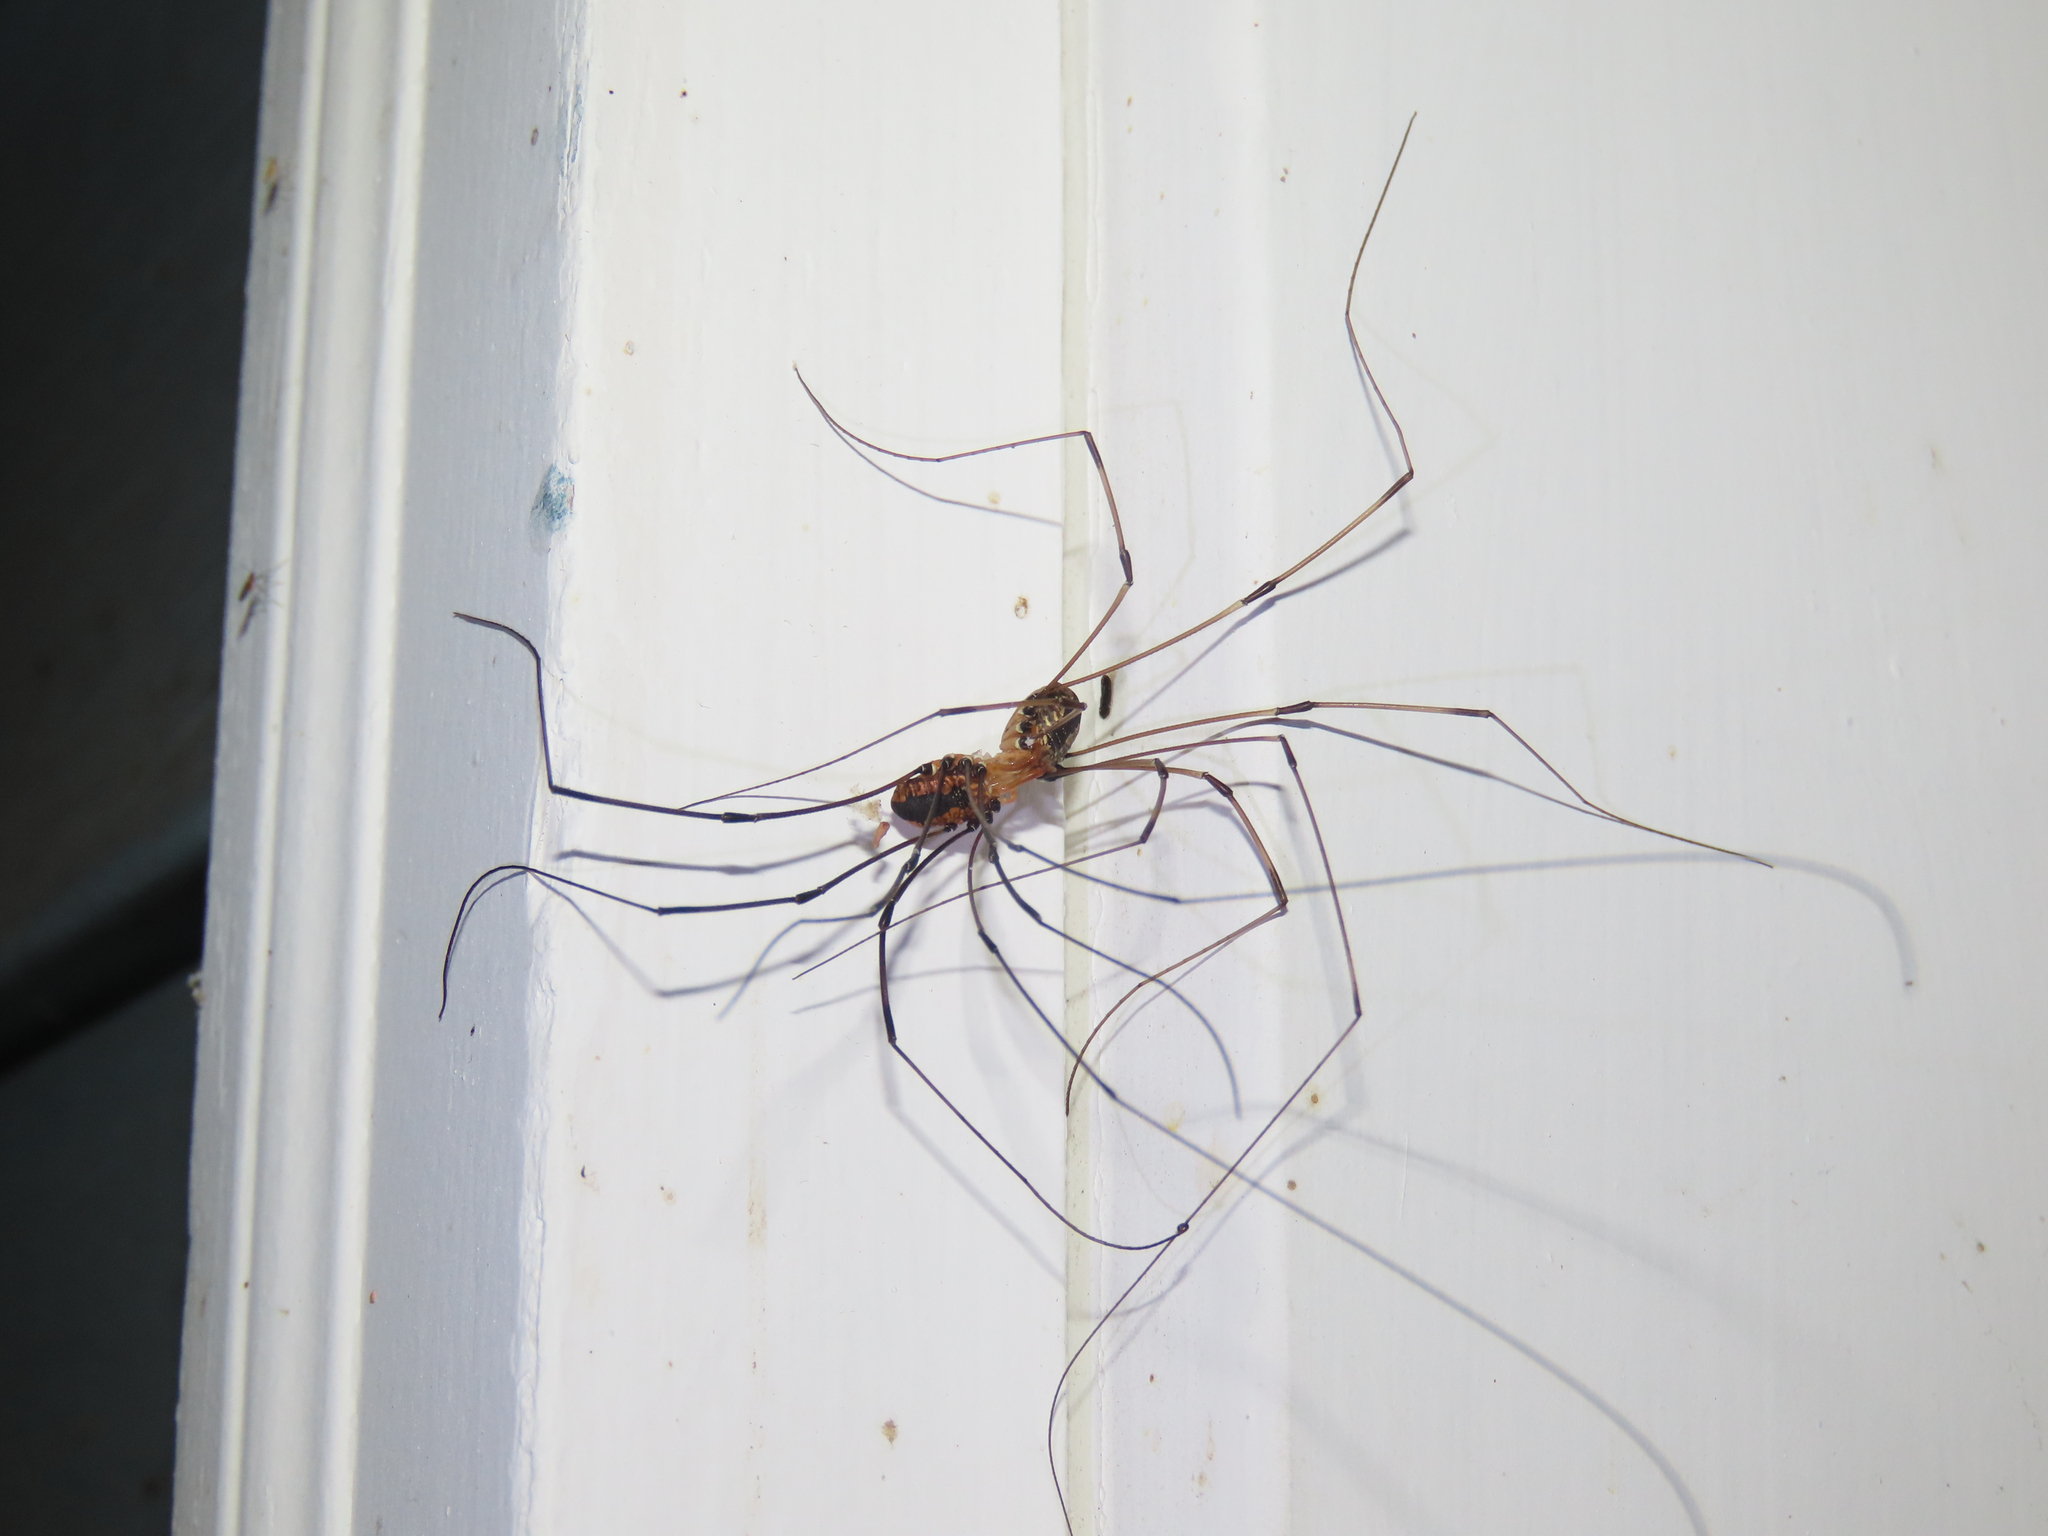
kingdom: Animalia
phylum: Arthropoda
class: Arachnida
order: Opiliones
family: Sclerosomatidae
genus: Leiobunum
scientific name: Leiobunum vittatum
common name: Eastern harvestman
